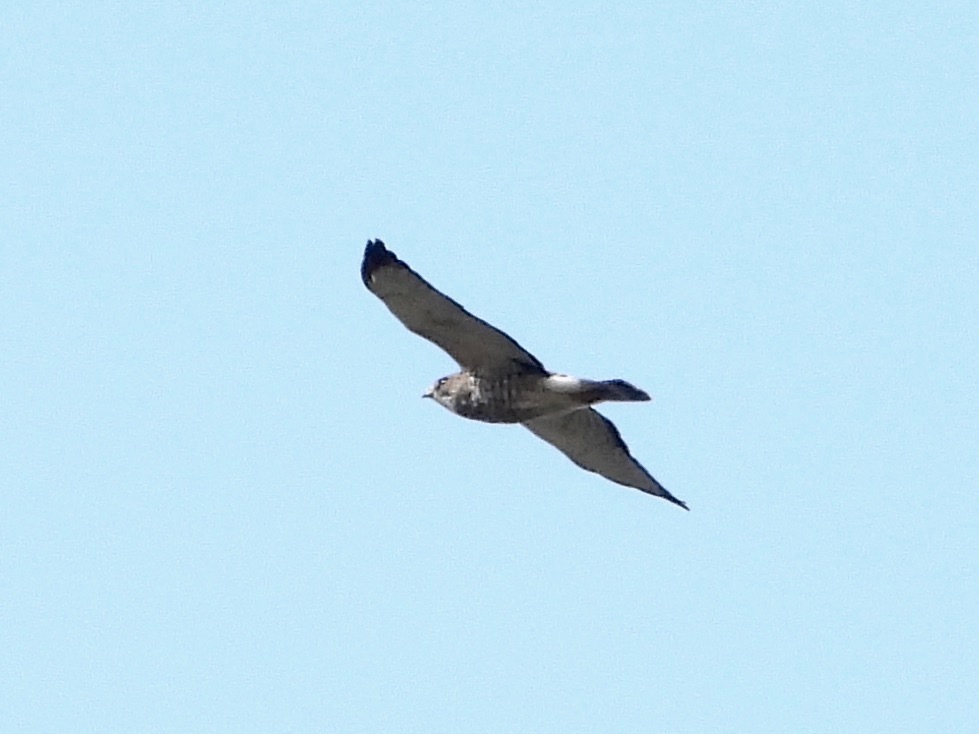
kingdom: Animalia
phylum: Chordata
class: Aves
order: Accipitriformes
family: Accipitridae
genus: Buteo
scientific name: Buteo platypterus
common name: Broad-winged hawk
